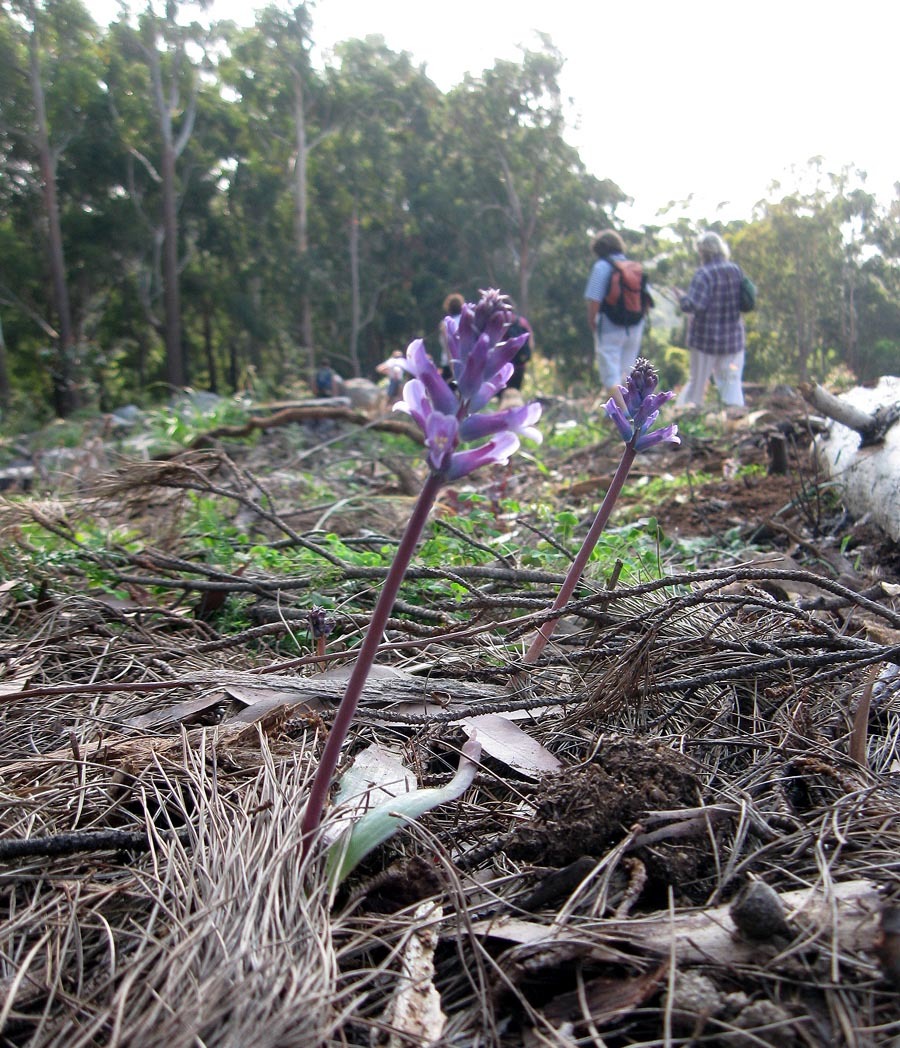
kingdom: Plantae
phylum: Tracheophyta
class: Liliopsida
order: Asparagales
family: Asparagaceae
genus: Lachenalia
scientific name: Lachenalia glaucina
